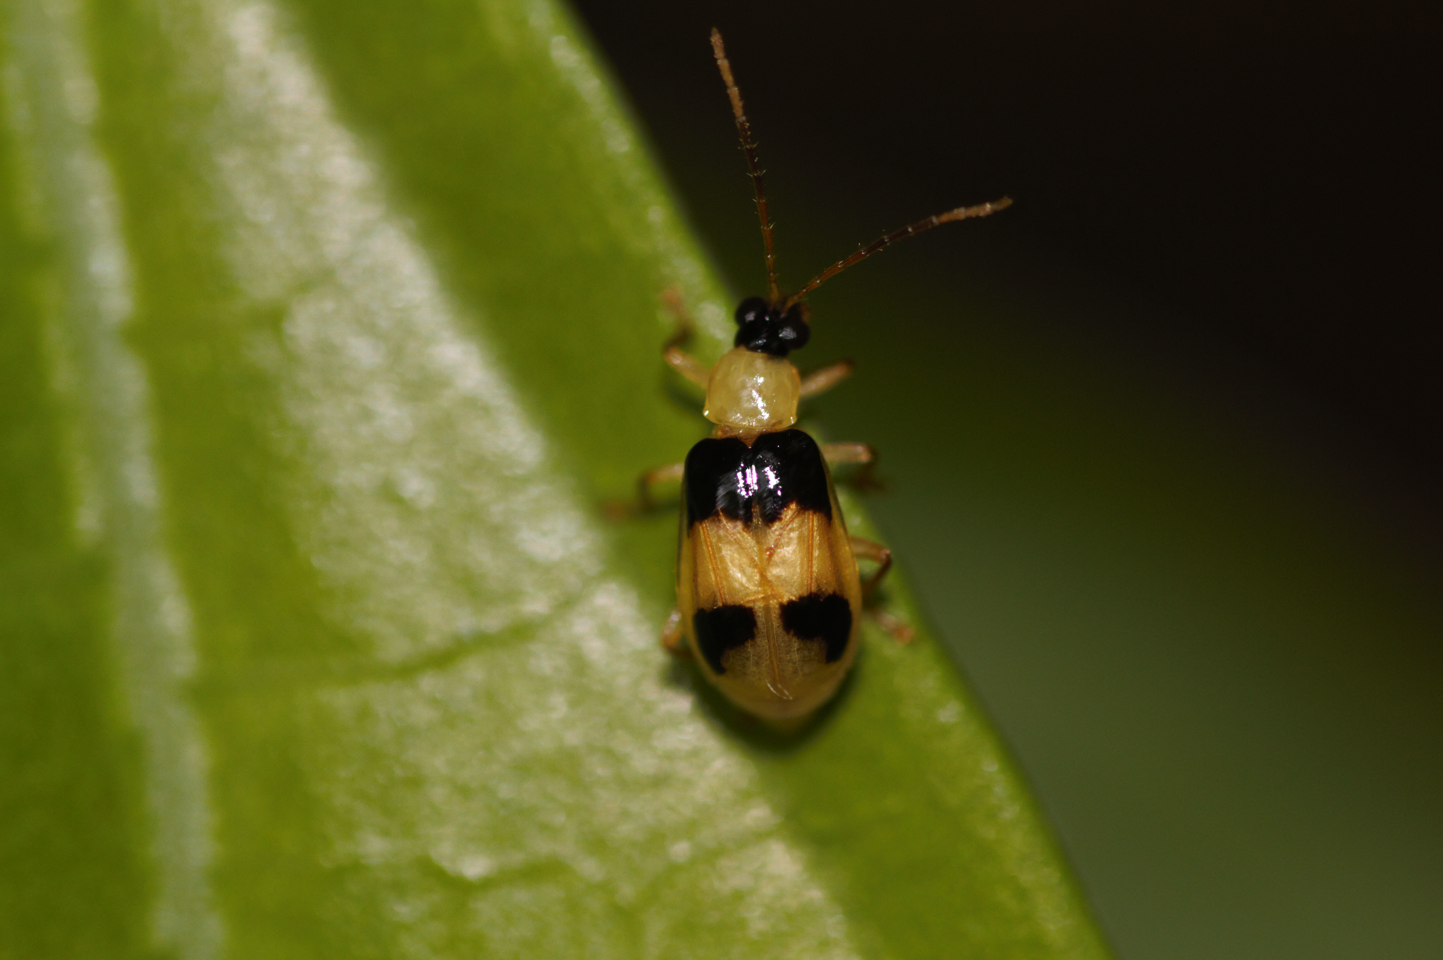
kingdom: Animalia
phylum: Arthropoda
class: Insecta
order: Coleoptera
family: Chrysomelidae
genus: Diabrotica
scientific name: Diabrotica godmani
